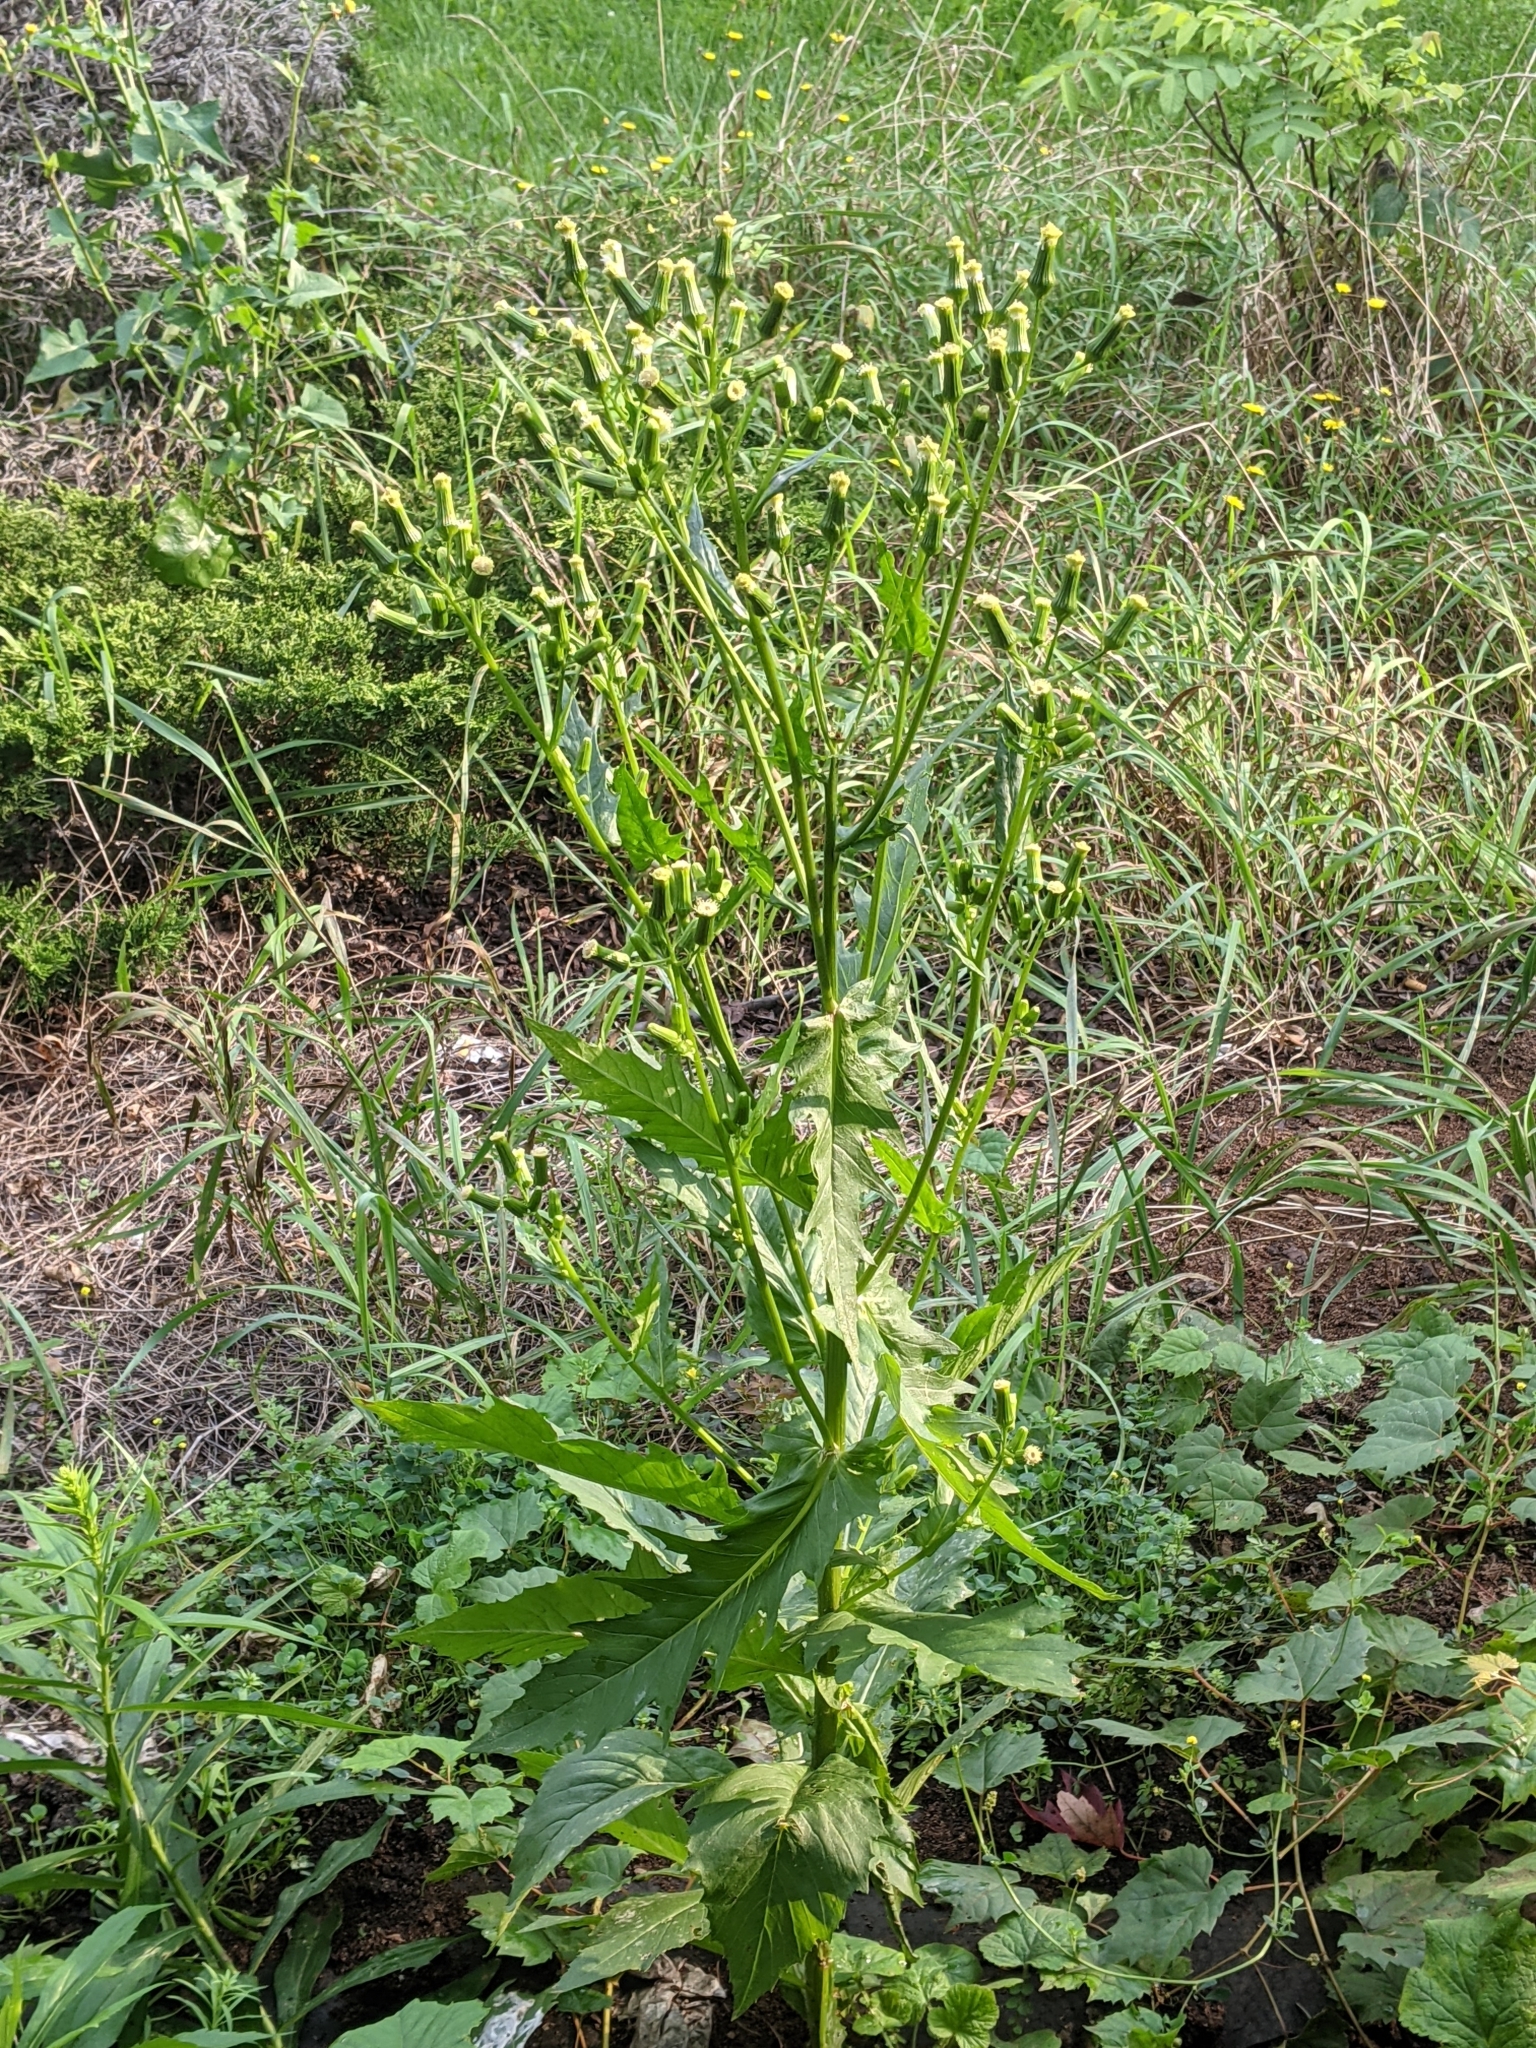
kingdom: Plantae
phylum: Tracheophyta
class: Magnoliopsida
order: Asterales
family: Asteraceae
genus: Erechtites
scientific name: Erechtites hieraciifolius
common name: American burnweed
